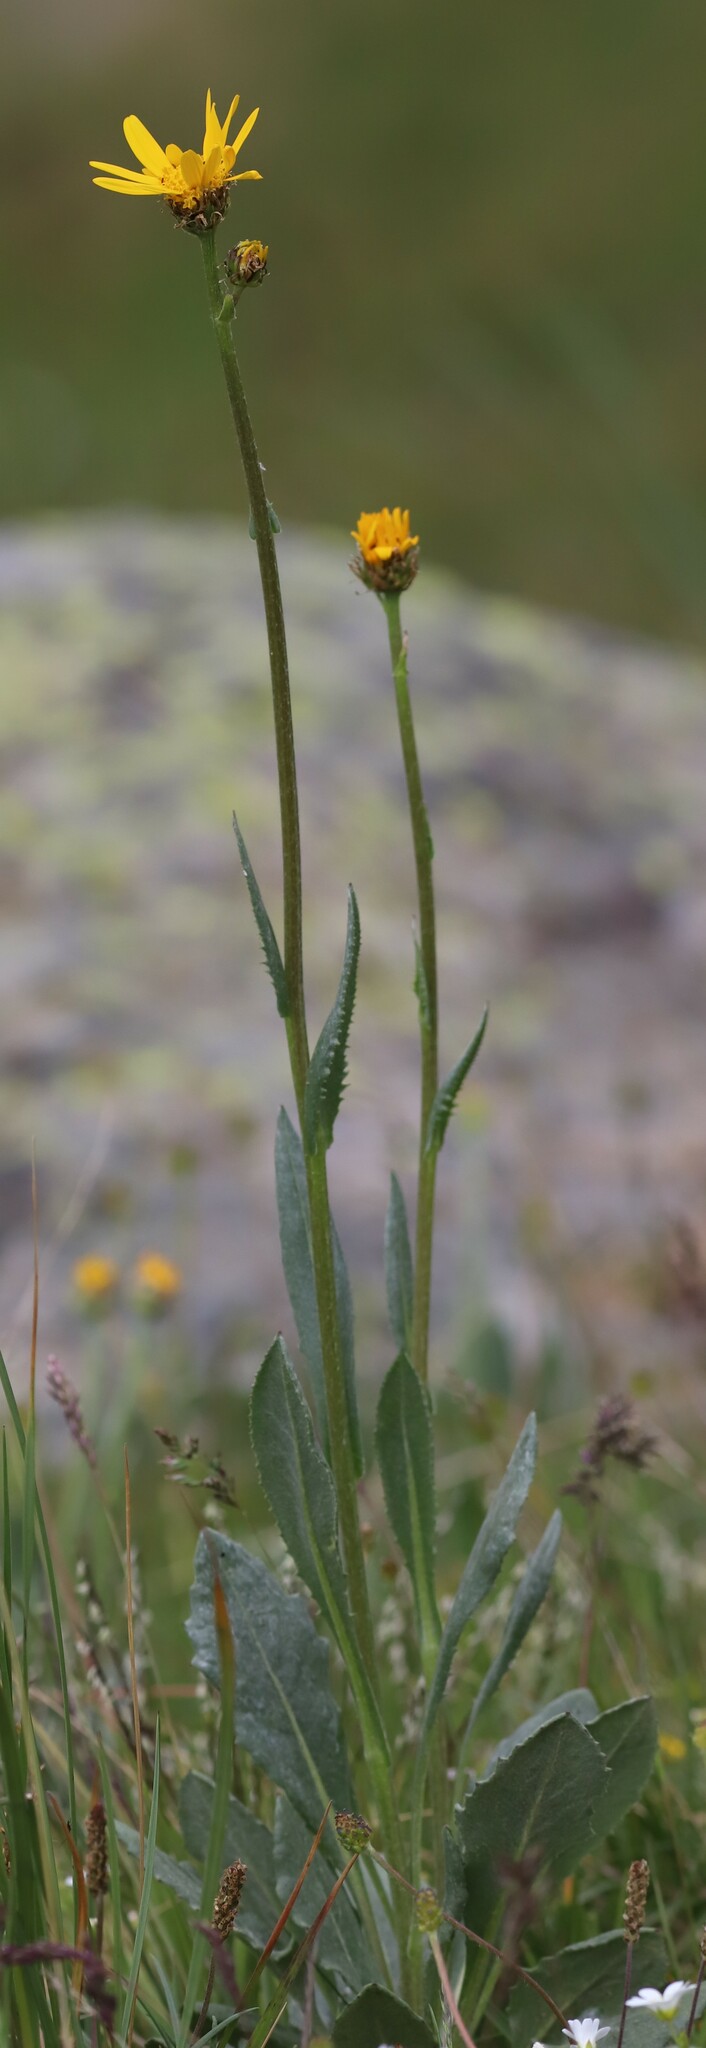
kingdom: Plantae
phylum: Tracheophyta
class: Magnoliopsida
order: Asterales
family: Asteraceae
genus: Senecio
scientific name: Senecio doronicum
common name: Chamois ragwort
